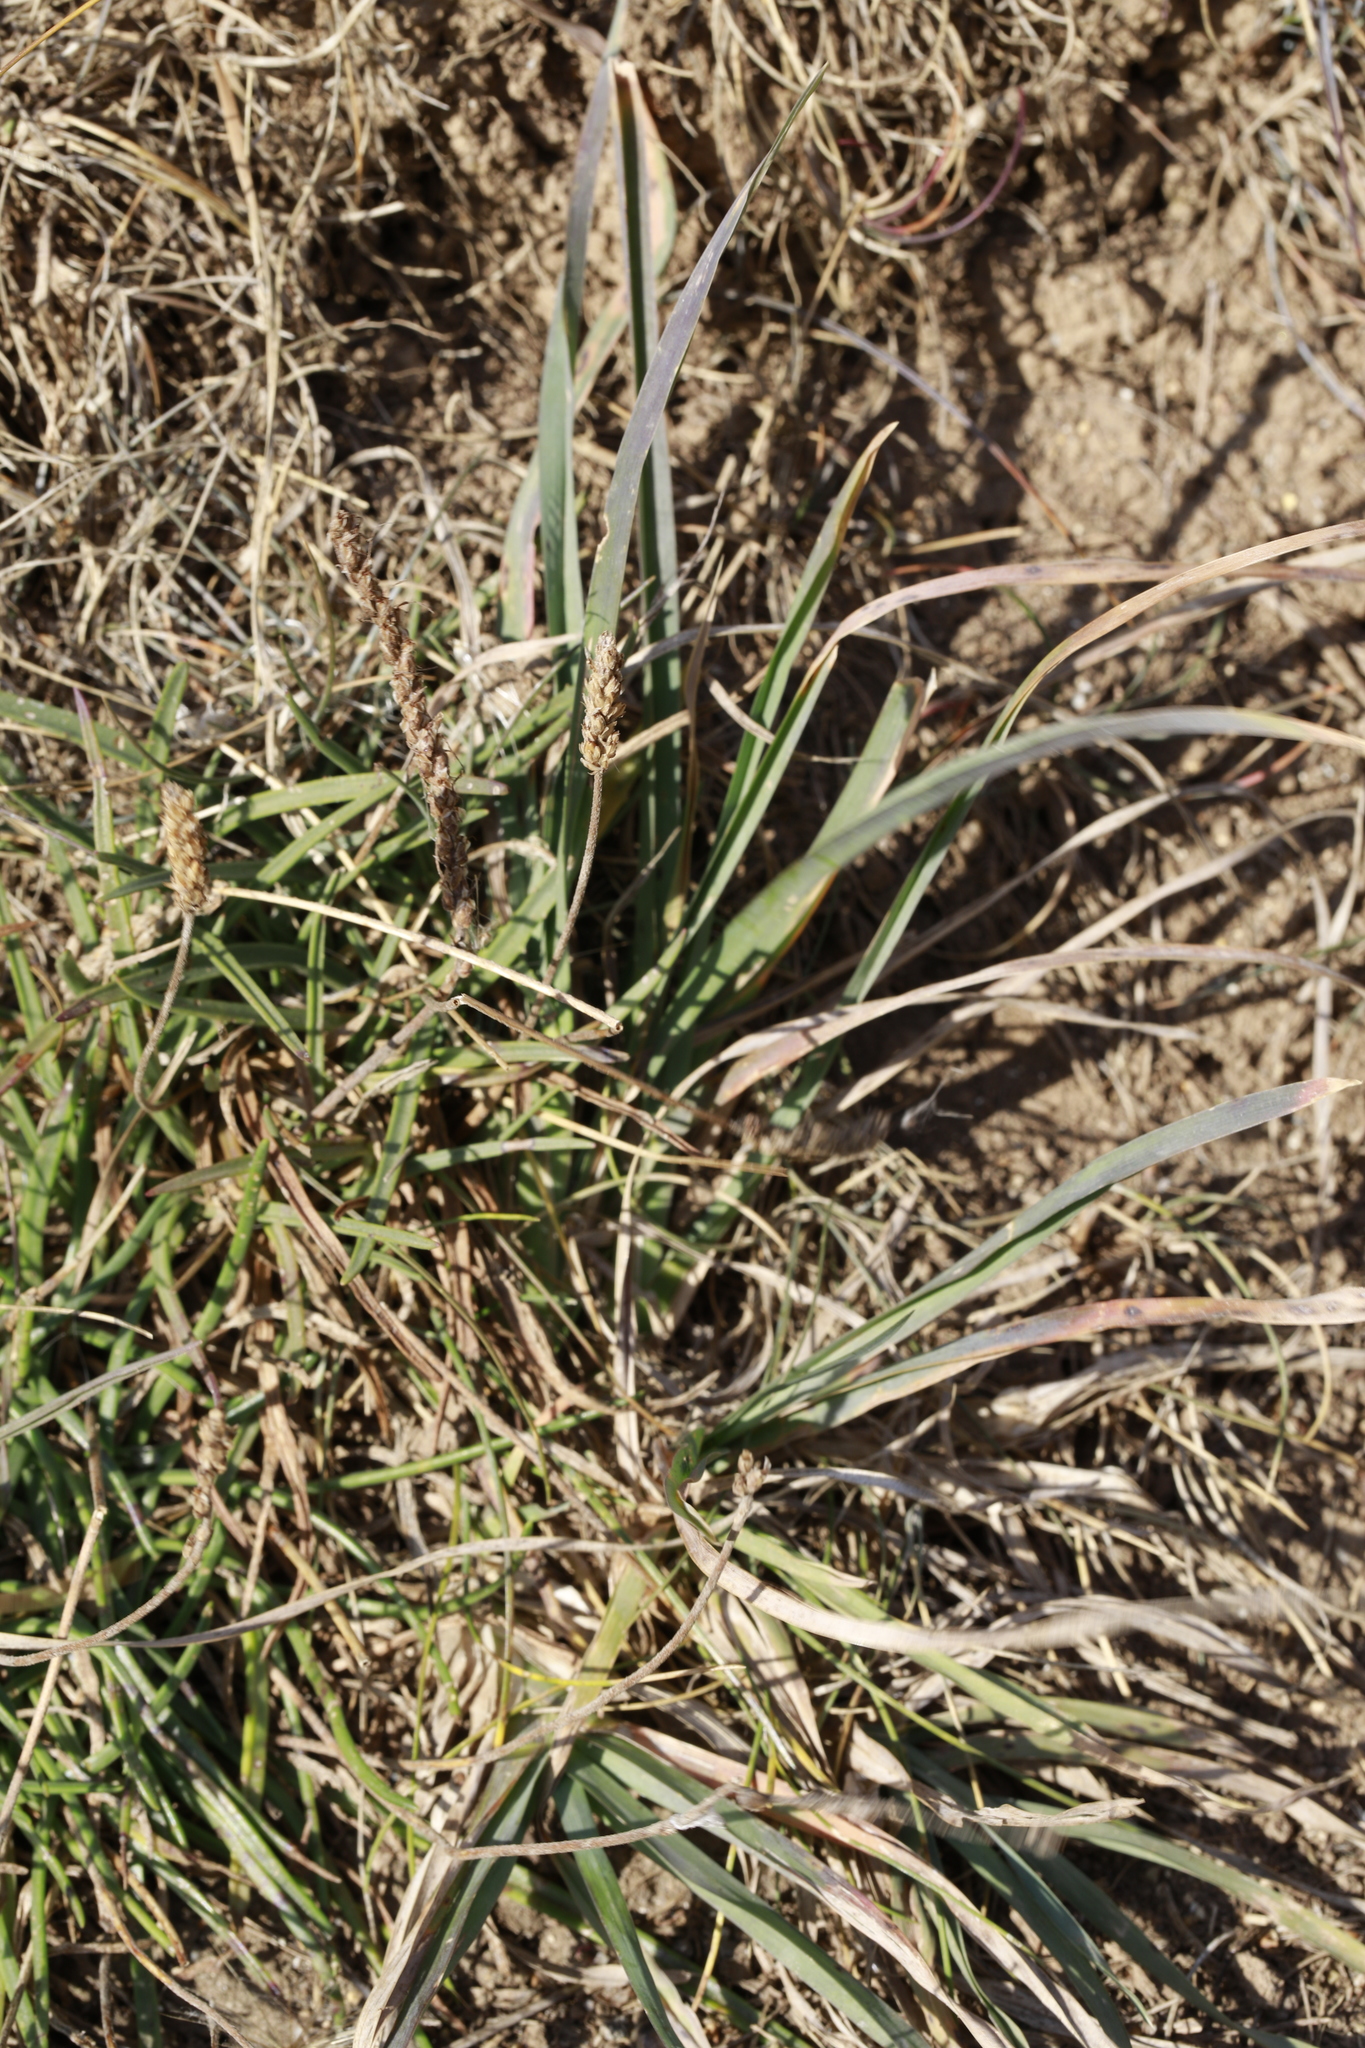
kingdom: Plantae
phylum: Tracheophyta
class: Magnoliopsida
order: Lamiales
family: Plantaginaceae
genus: Plantago
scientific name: Plantago maritima
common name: Sea plantain
